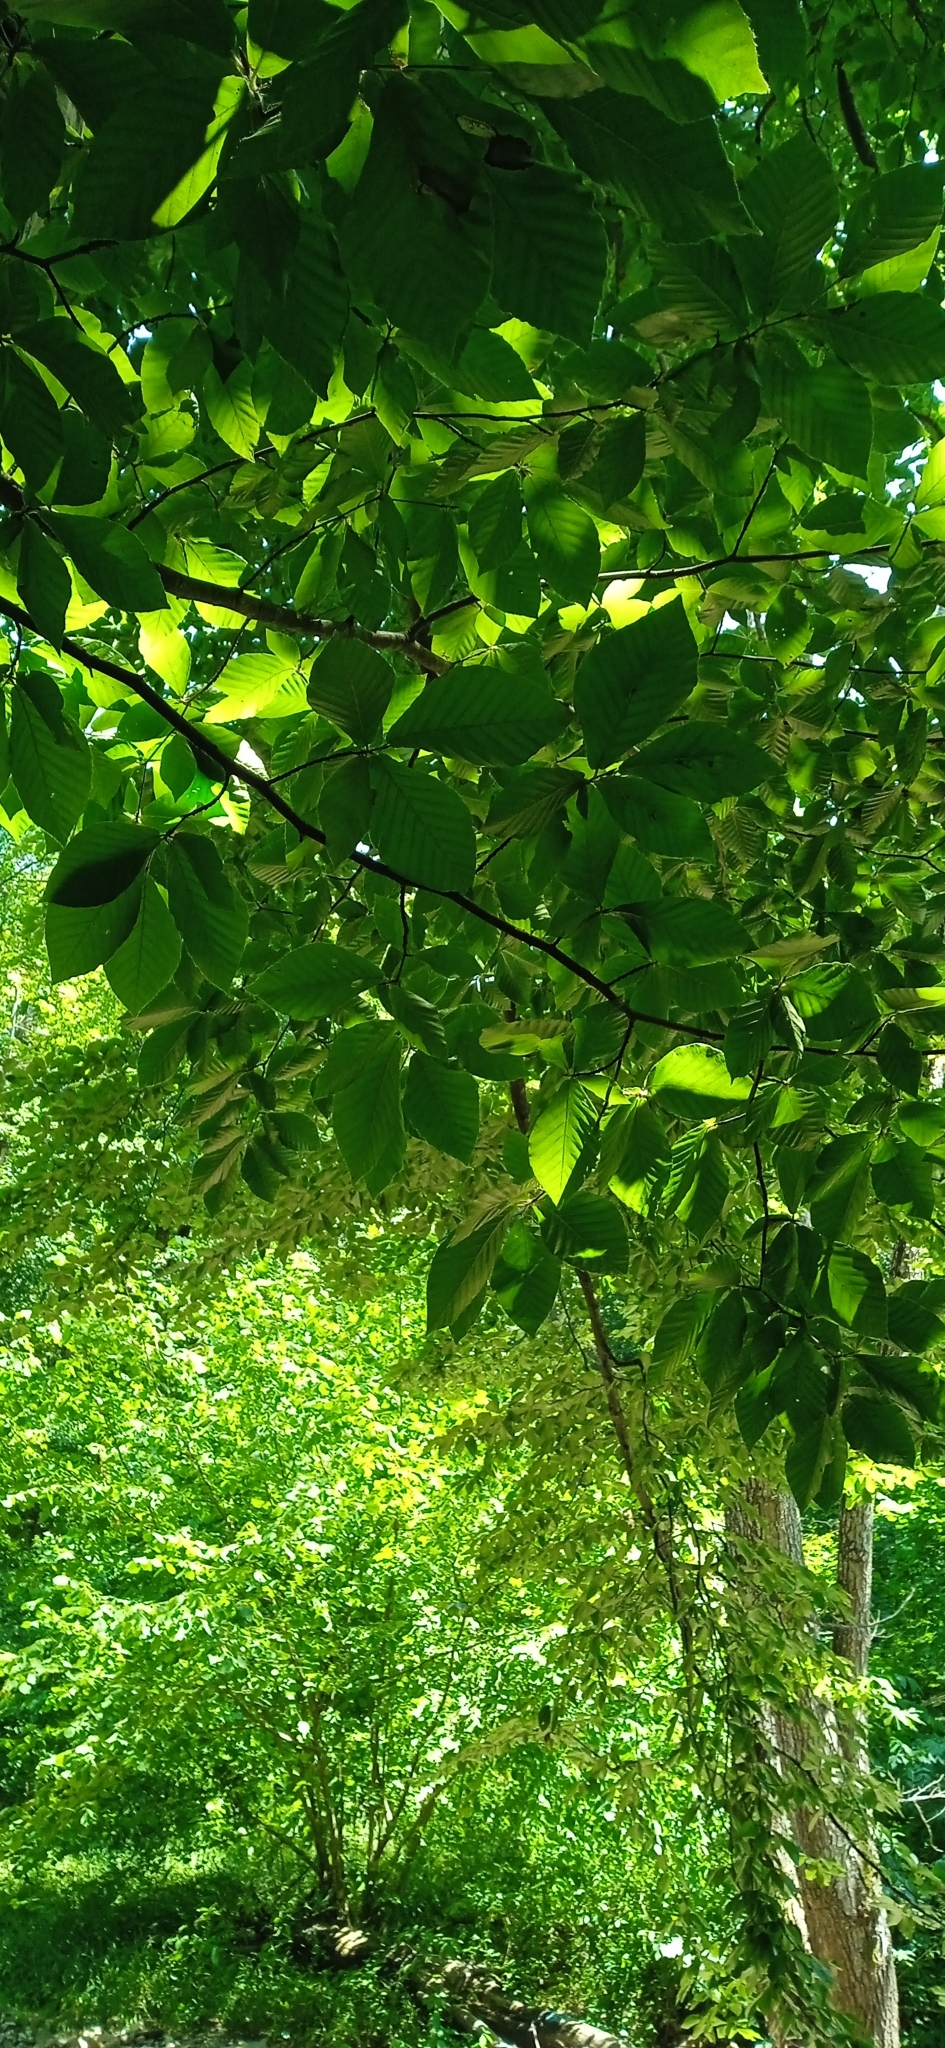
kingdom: Plantae
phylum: Tracheophyta
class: Magnoliopsida
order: Fagales
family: Fagaceae
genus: Fagus
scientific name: Fagus orientalis
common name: Oriental beech
